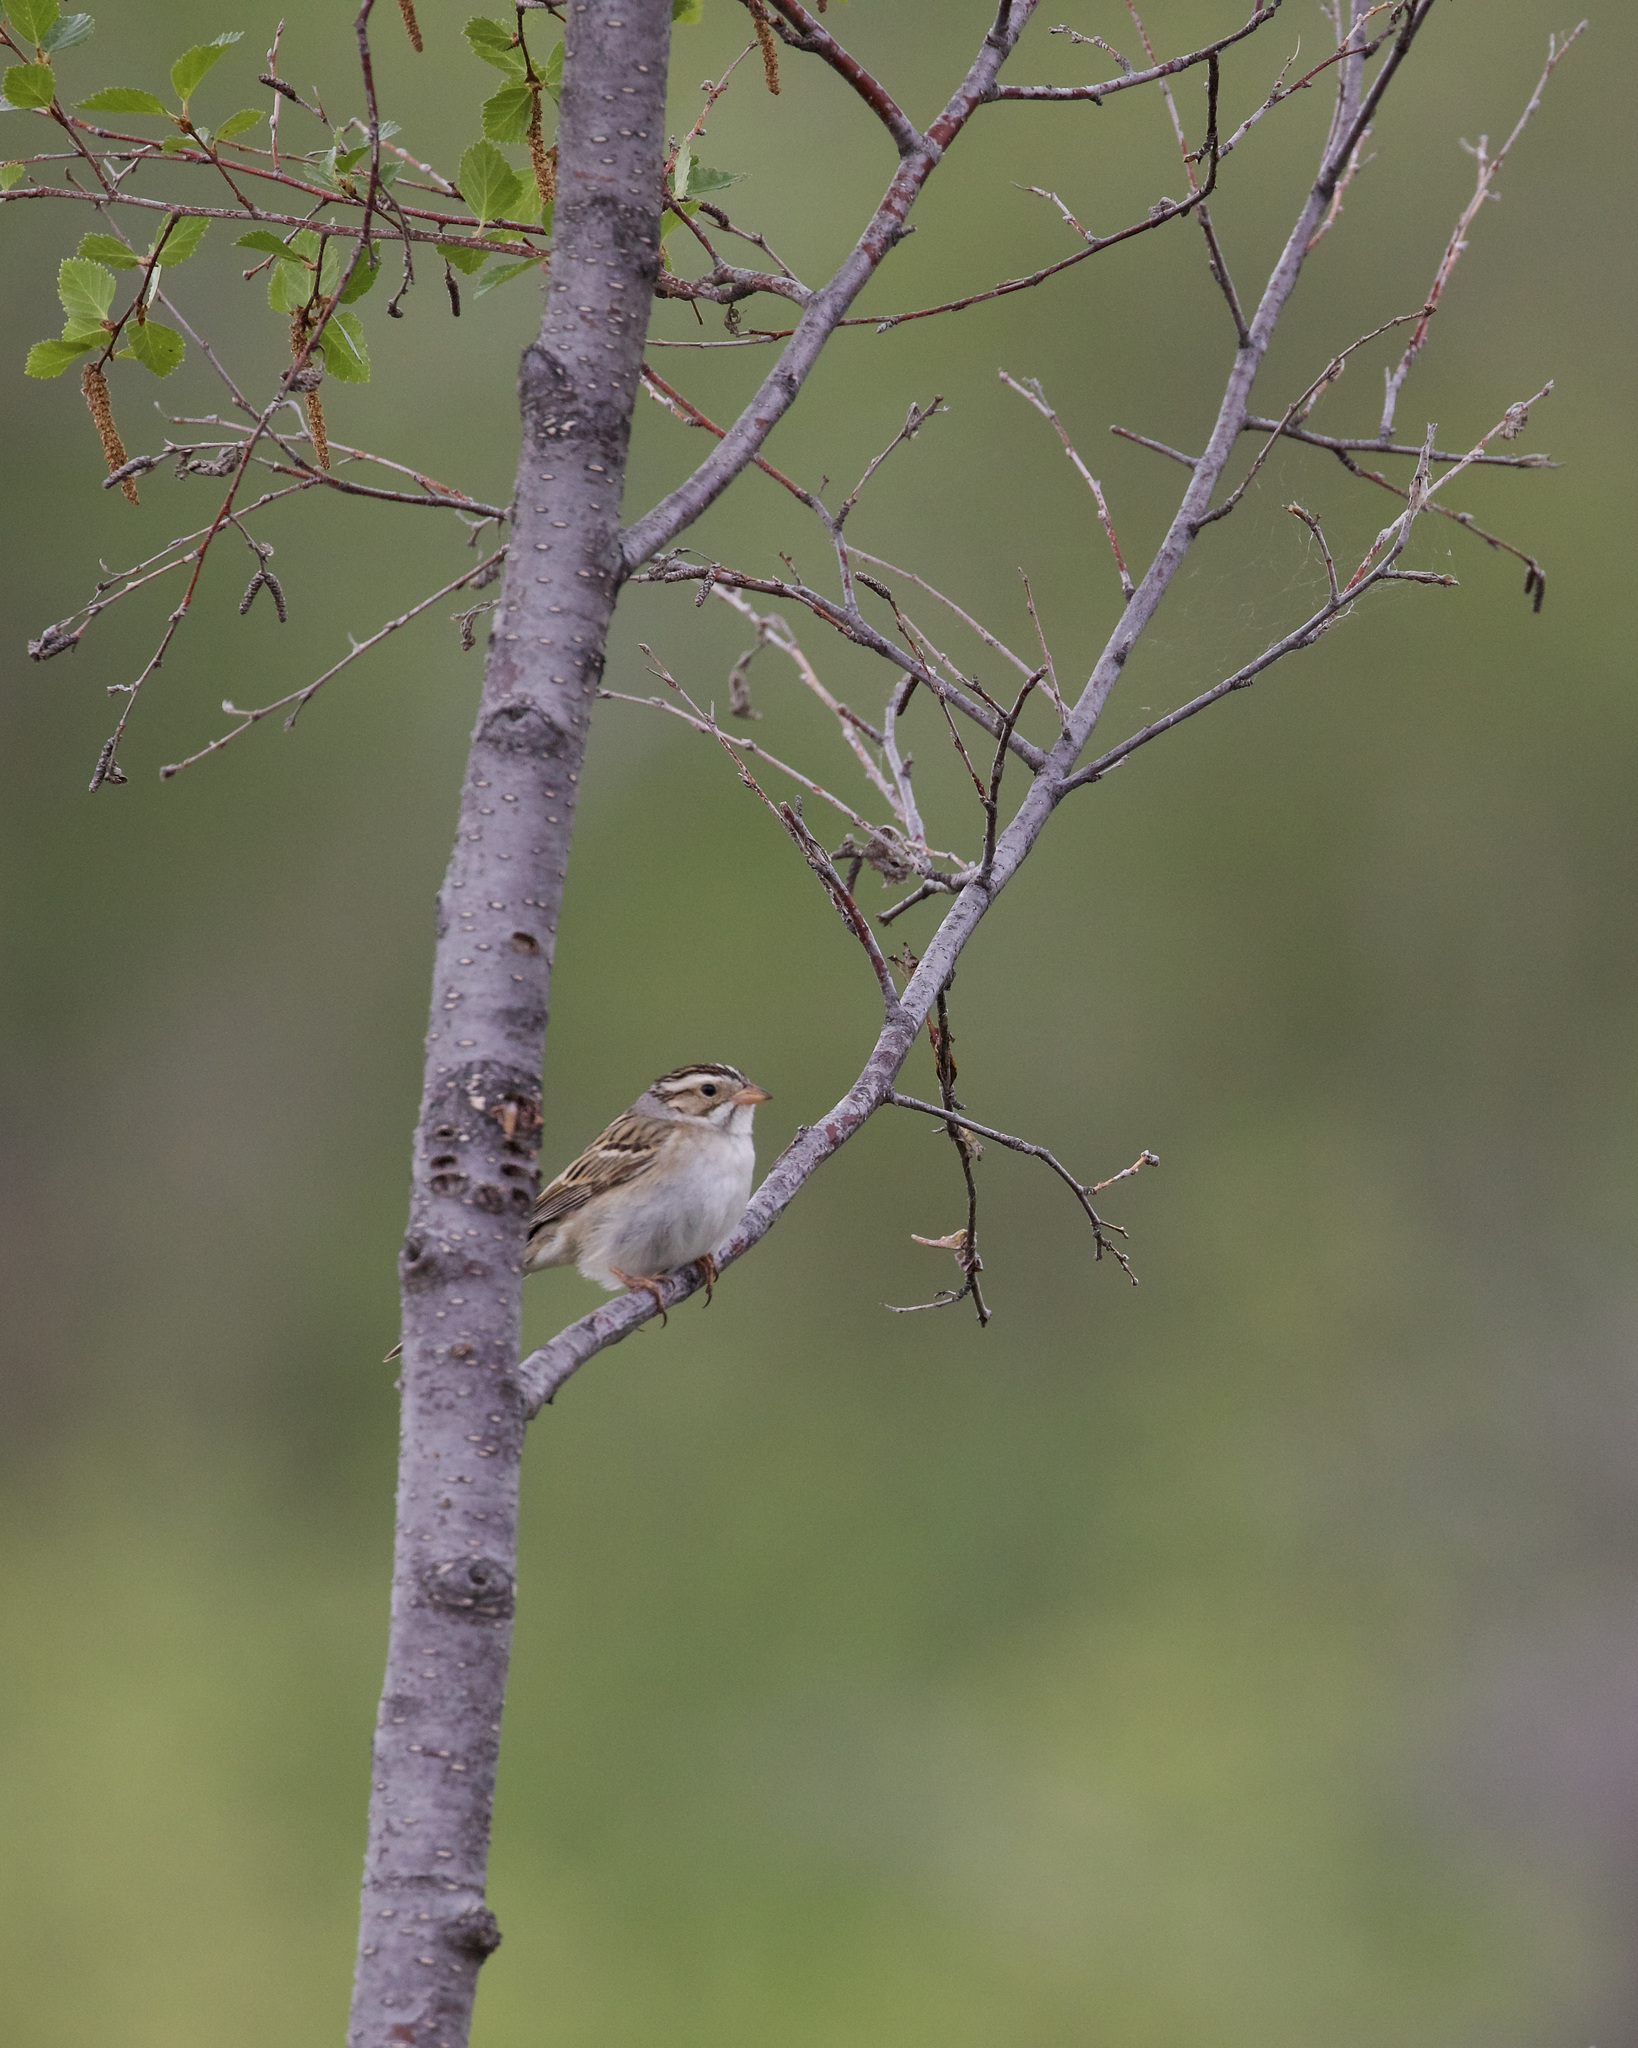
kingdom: Animalia
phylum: Chordata
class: Aves
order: Passeriformes
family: Passerellidae
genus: Spizella
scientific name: Spizella pallida
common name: Clay-colored sparrow
